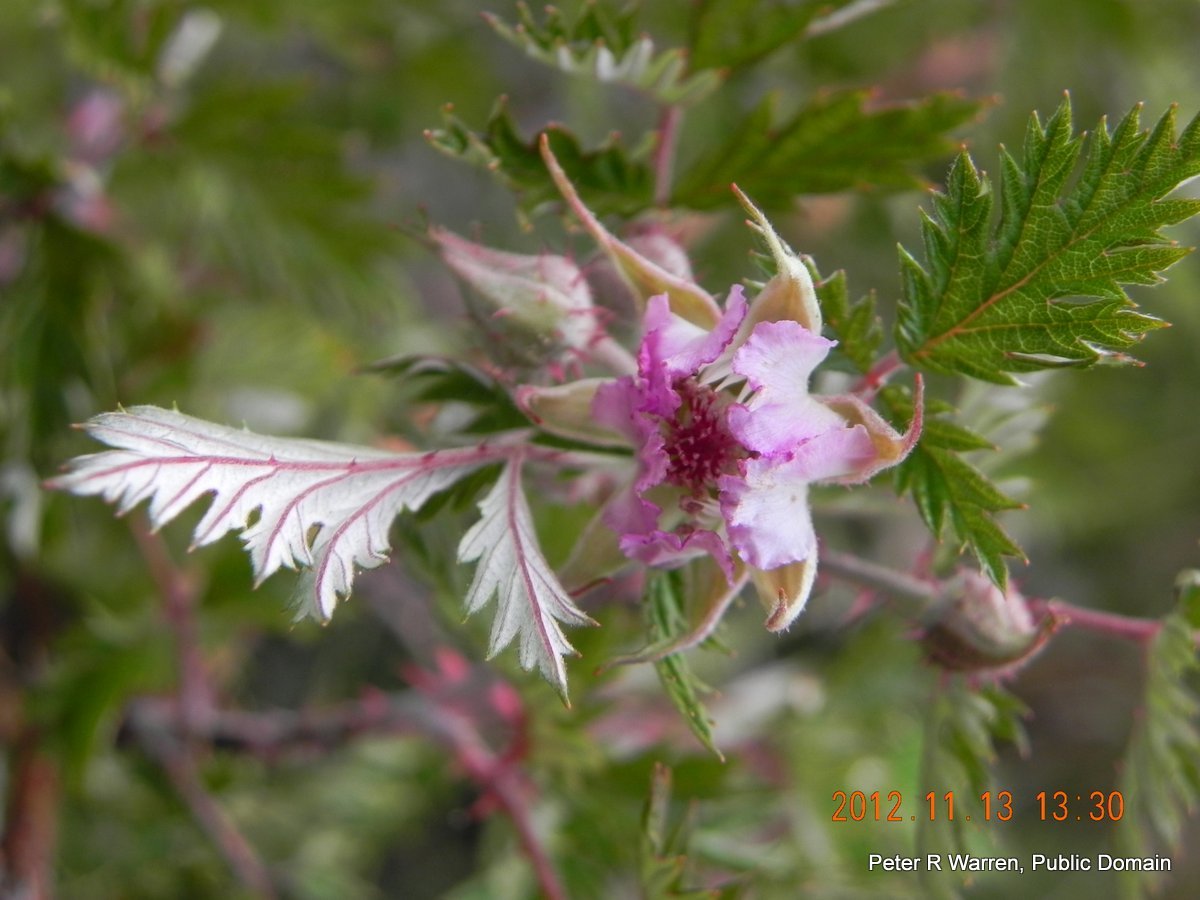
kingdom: Plantae
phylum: Tracheophyta
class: Magnoliopsida
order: Rosales
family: Rosaceae
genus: Rubus
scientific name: Rubus ludwigii
